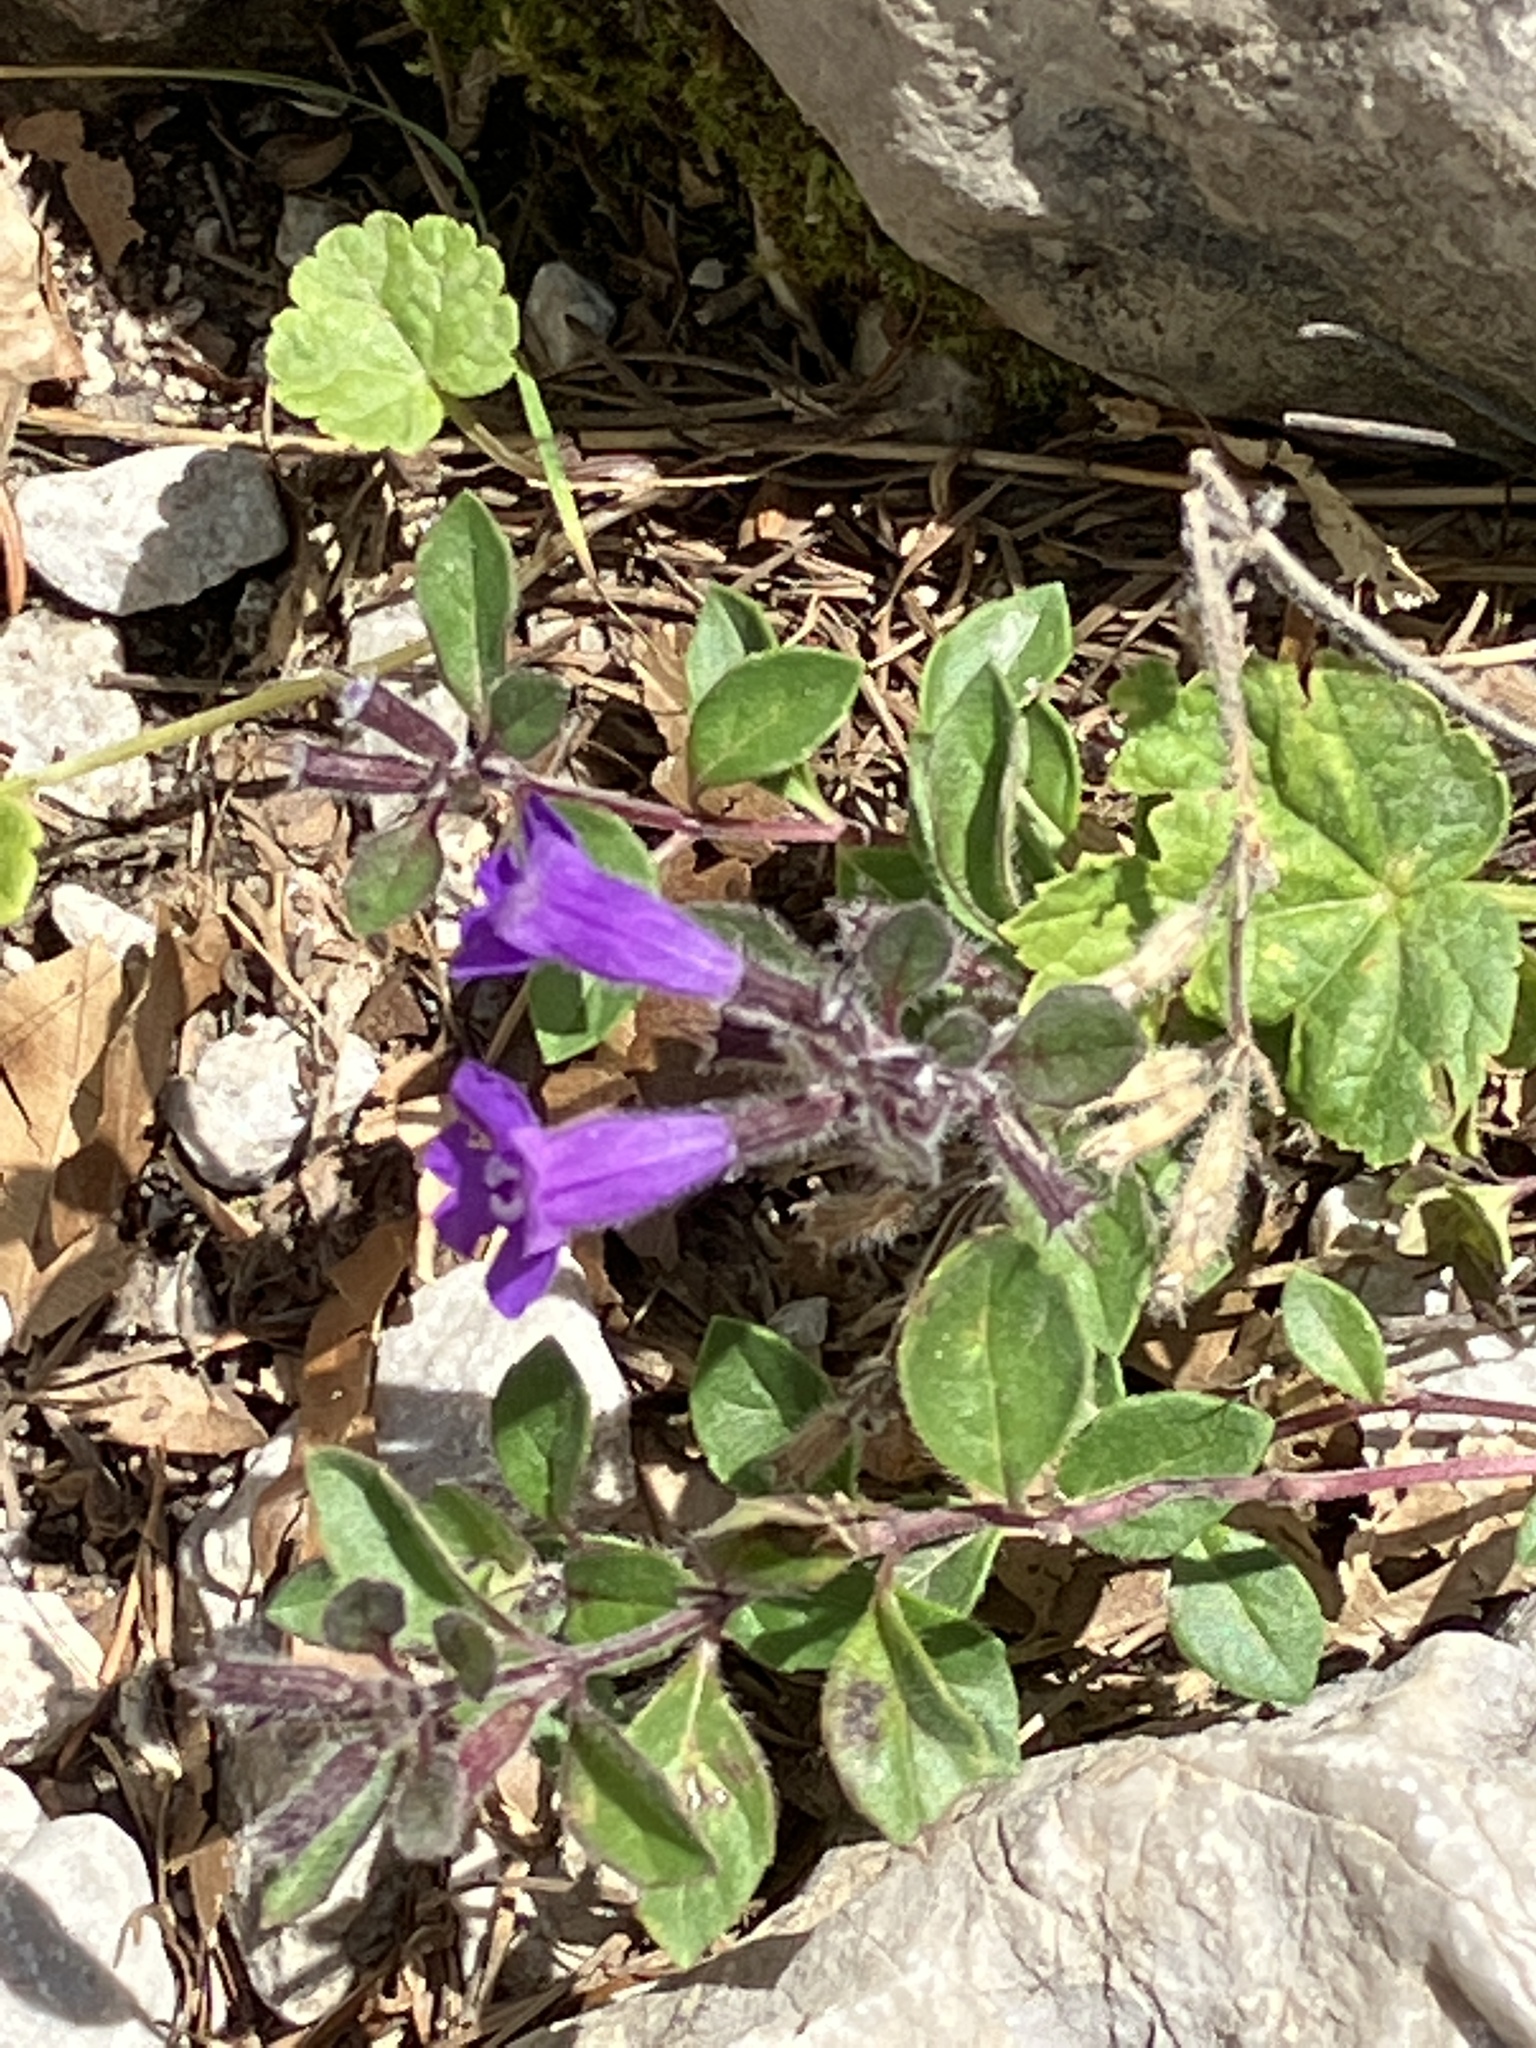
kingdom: Plantae
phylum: Tracheophyta
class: Magnoliopsida
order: Lamiales
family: Lamiaceae
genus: Clinopodium
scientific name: Clinopodium alpinum
